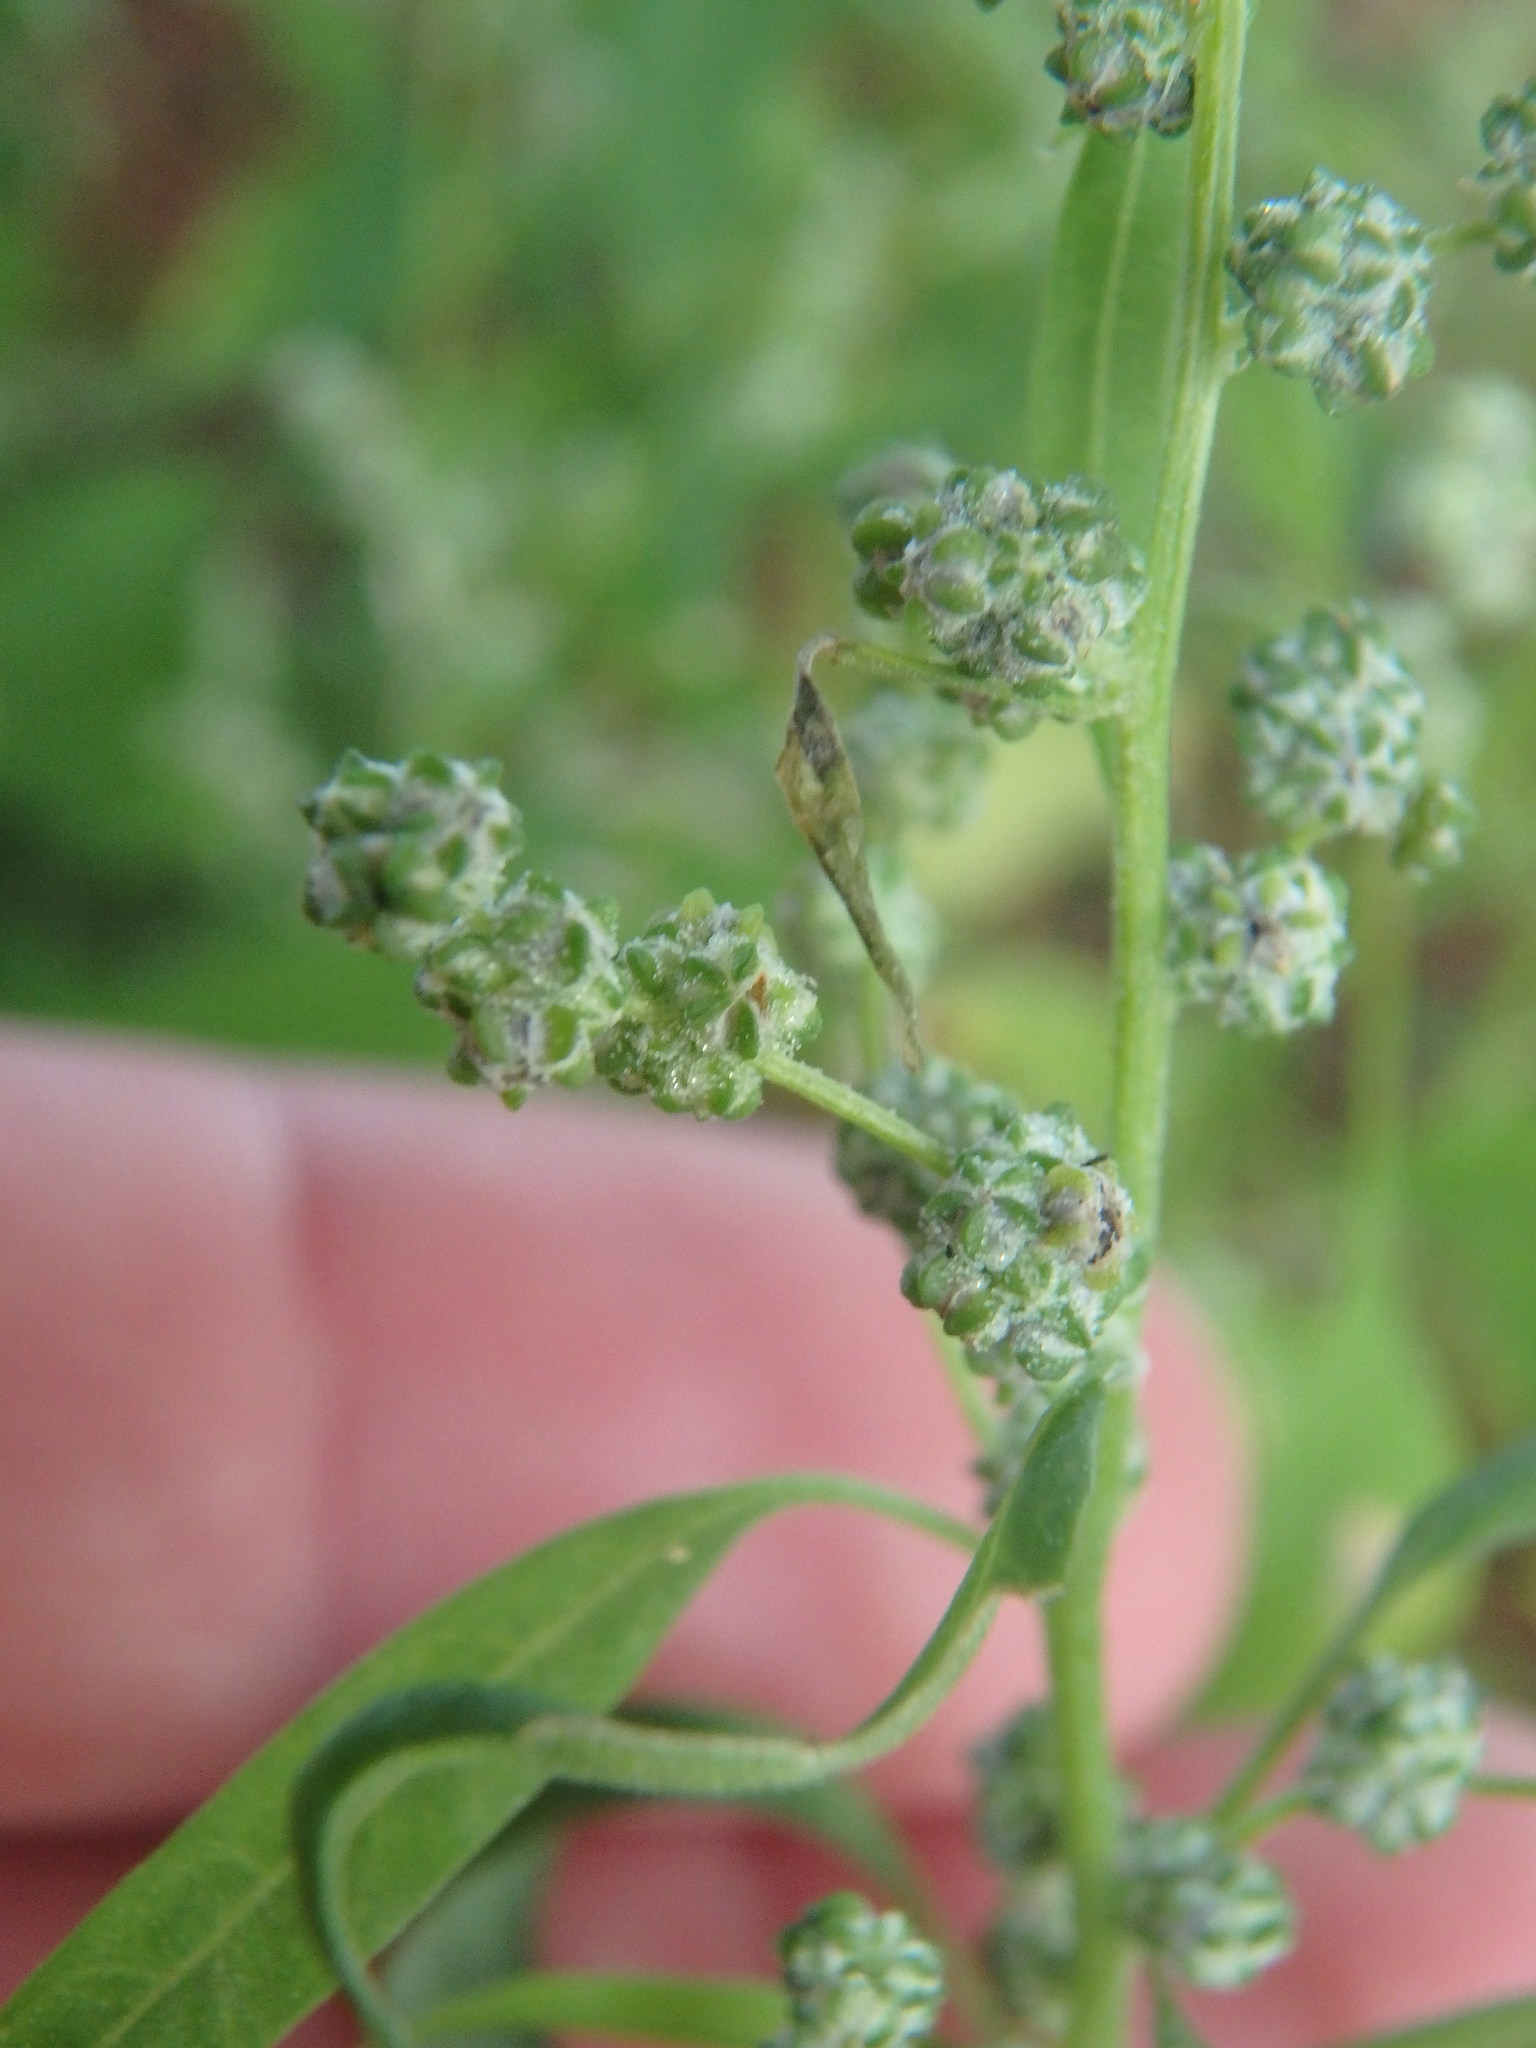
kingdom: Plantae
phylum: Tracheophyta
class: Magnoliopsida
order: Caryophyllales
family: Amaranthaceae
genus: Atriplex
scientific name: Atriplex patula
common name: Common orache
